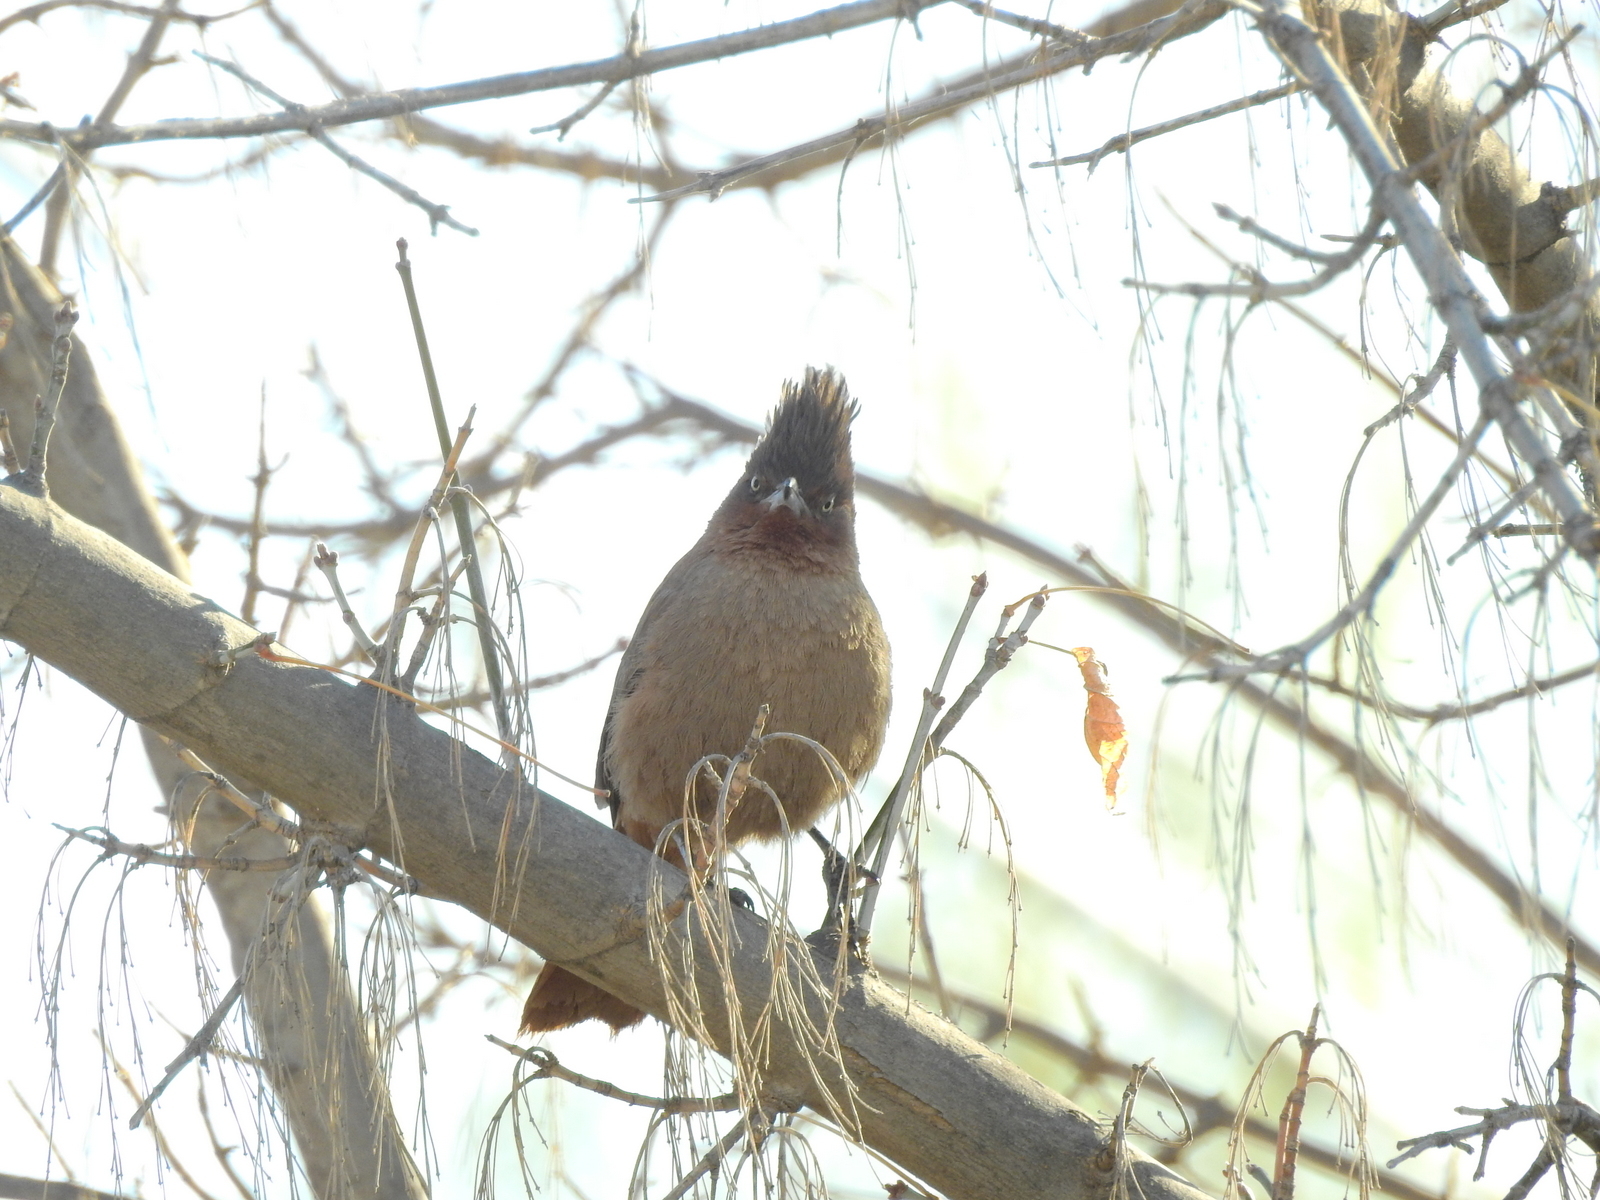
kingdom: Animalia
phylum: Chordata
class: Aves
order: Passeriformes
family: Furnariidae
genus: Pseudoseisura
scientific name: Pseudoseisura lophotes
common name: Brown cacholote
